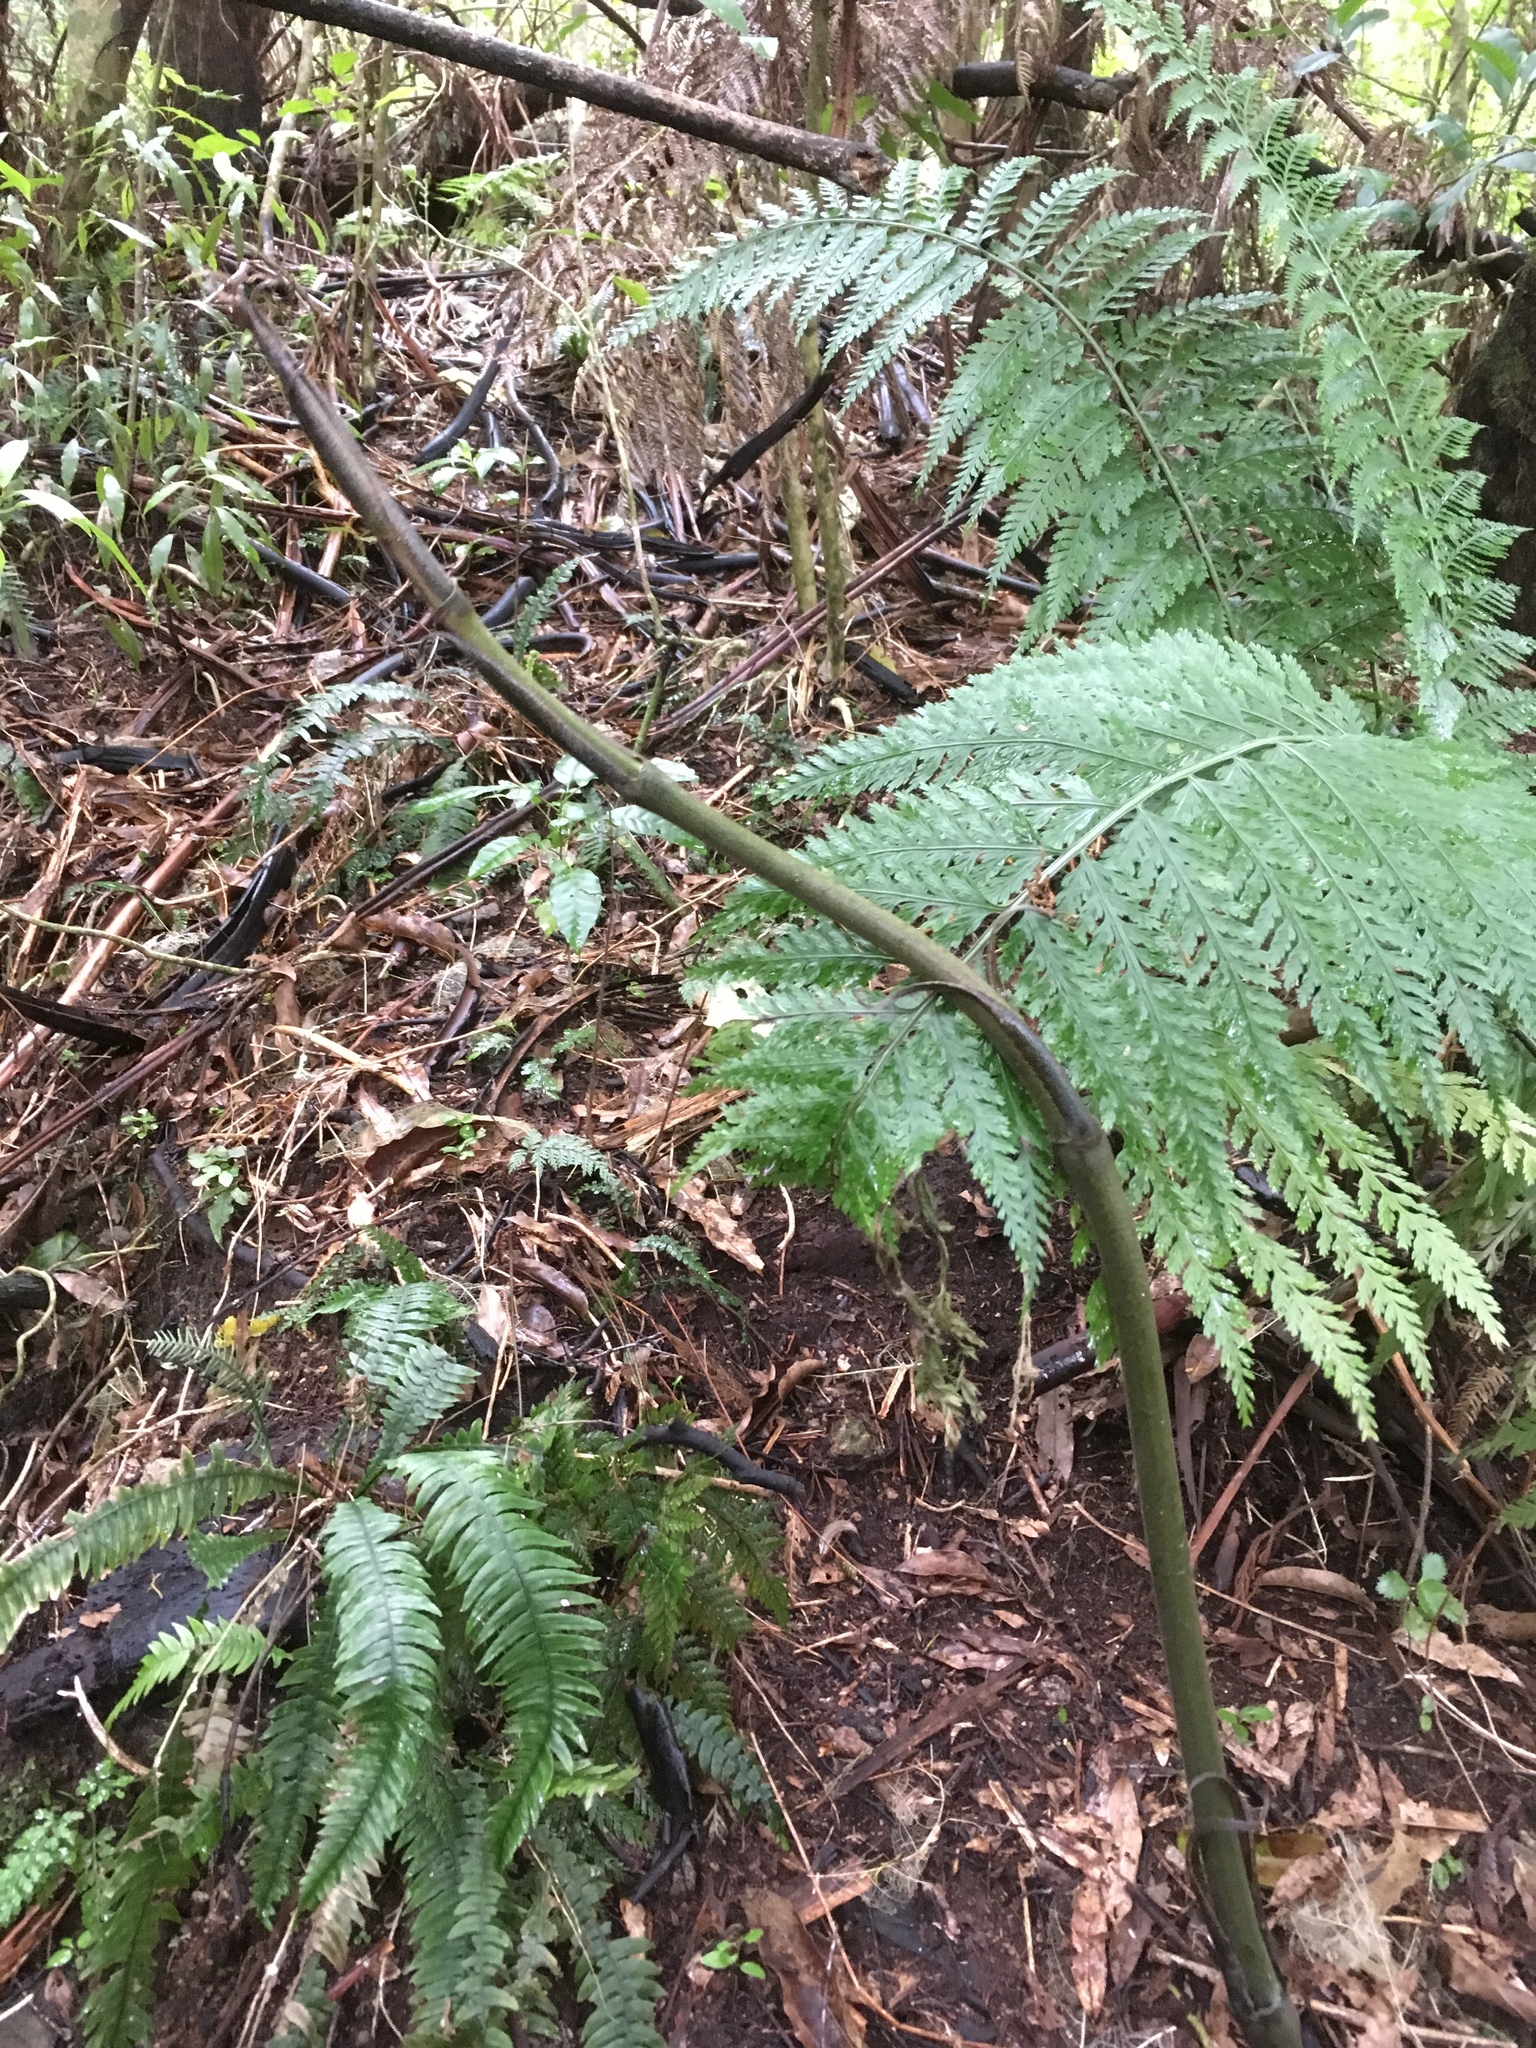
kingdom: Plantae
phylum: Tracheophyta
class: Liliopsida
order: Liliales
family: Ripogonaceae
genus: Ripogonum
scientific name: Ripogonum scandens
